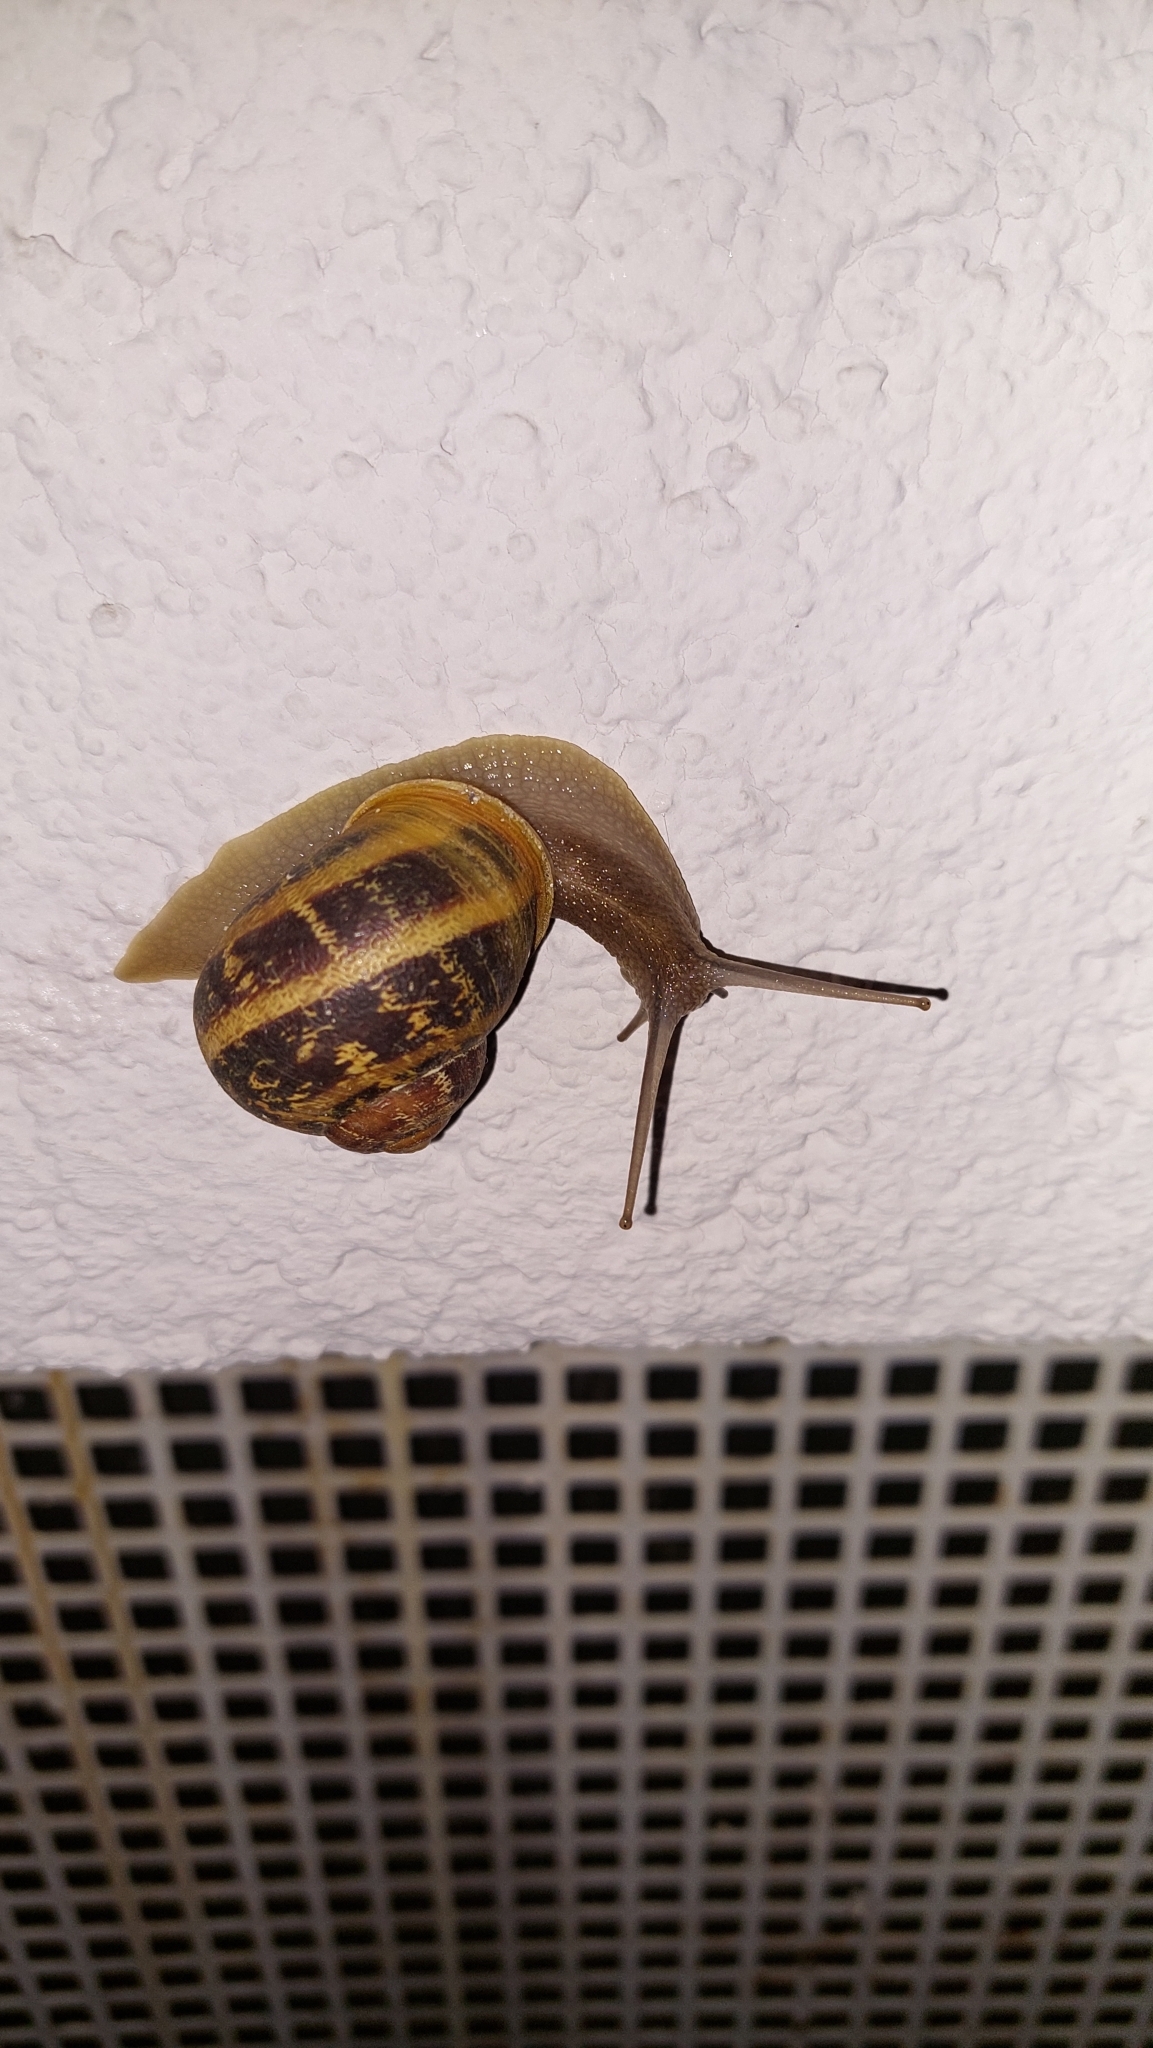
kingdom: Animalia
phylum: Mollusca
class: Gastropoda
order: Stylommatophora
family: Helicidae
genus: Cornu
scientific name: Cornu aspersum
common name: Brown garden snail
